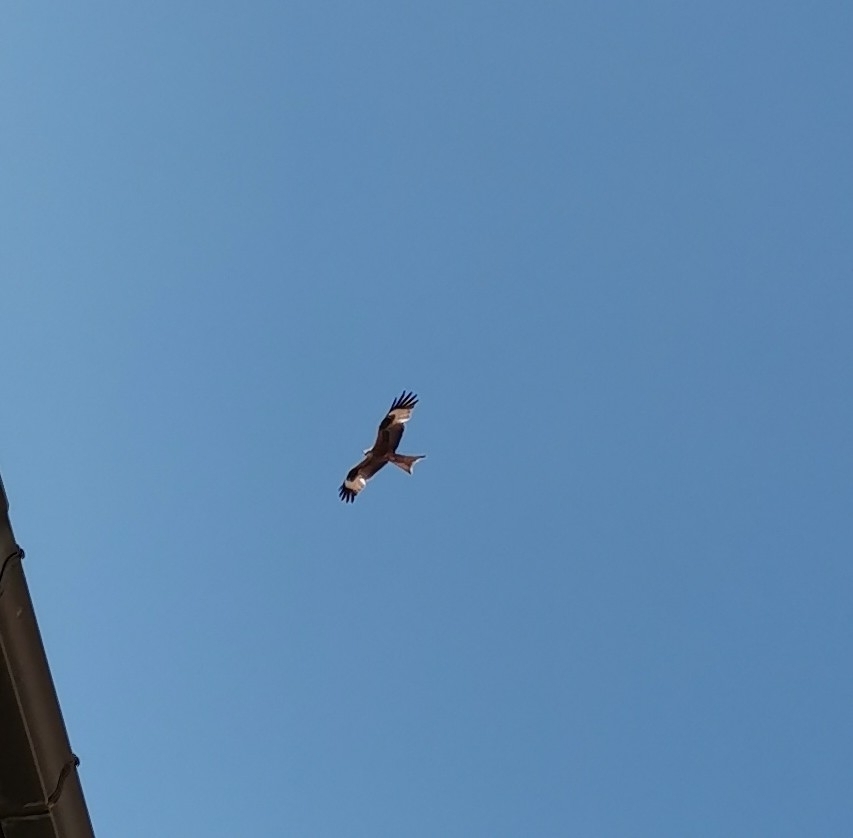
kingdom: Animalia
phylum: Chordata
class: Aves
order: Accipitriformes
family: Accipitridae
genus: Milvus
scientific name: Milvus milvus
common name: Red kite
